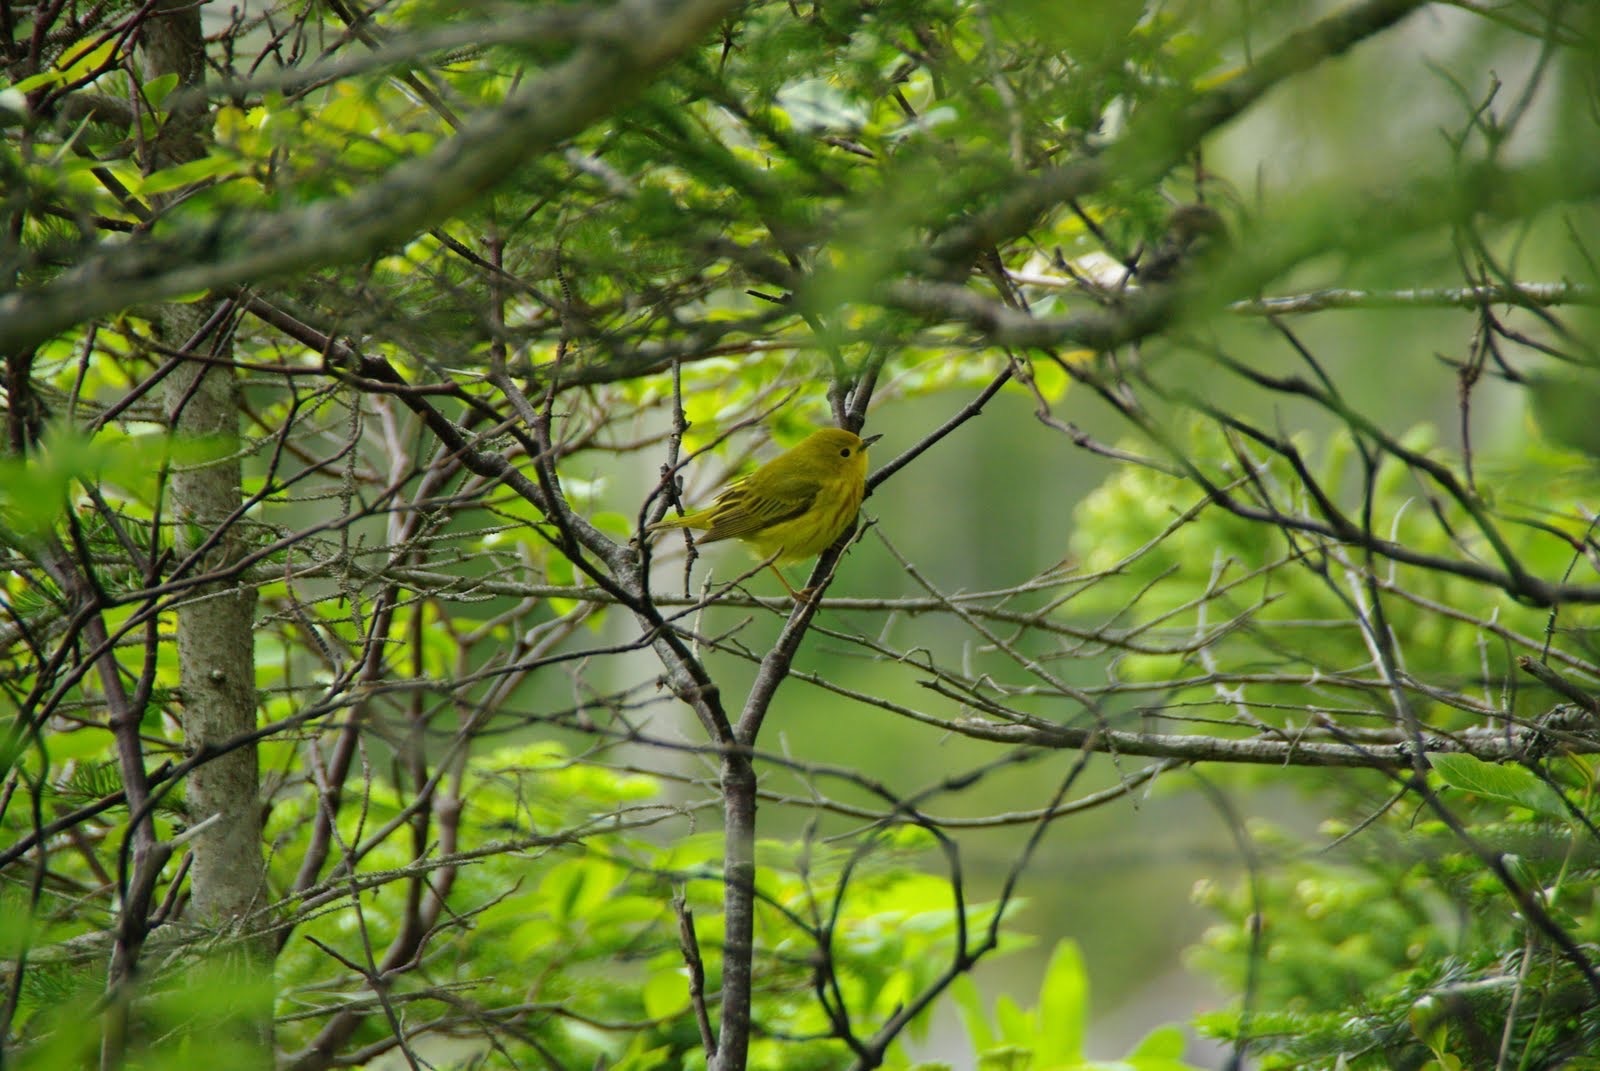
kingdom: Animalia
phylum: Chordata
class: Aves
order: Passeriformes
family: Parulidae
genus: Setophaga
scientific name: Setophaga petechia
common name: Yellow warbler
